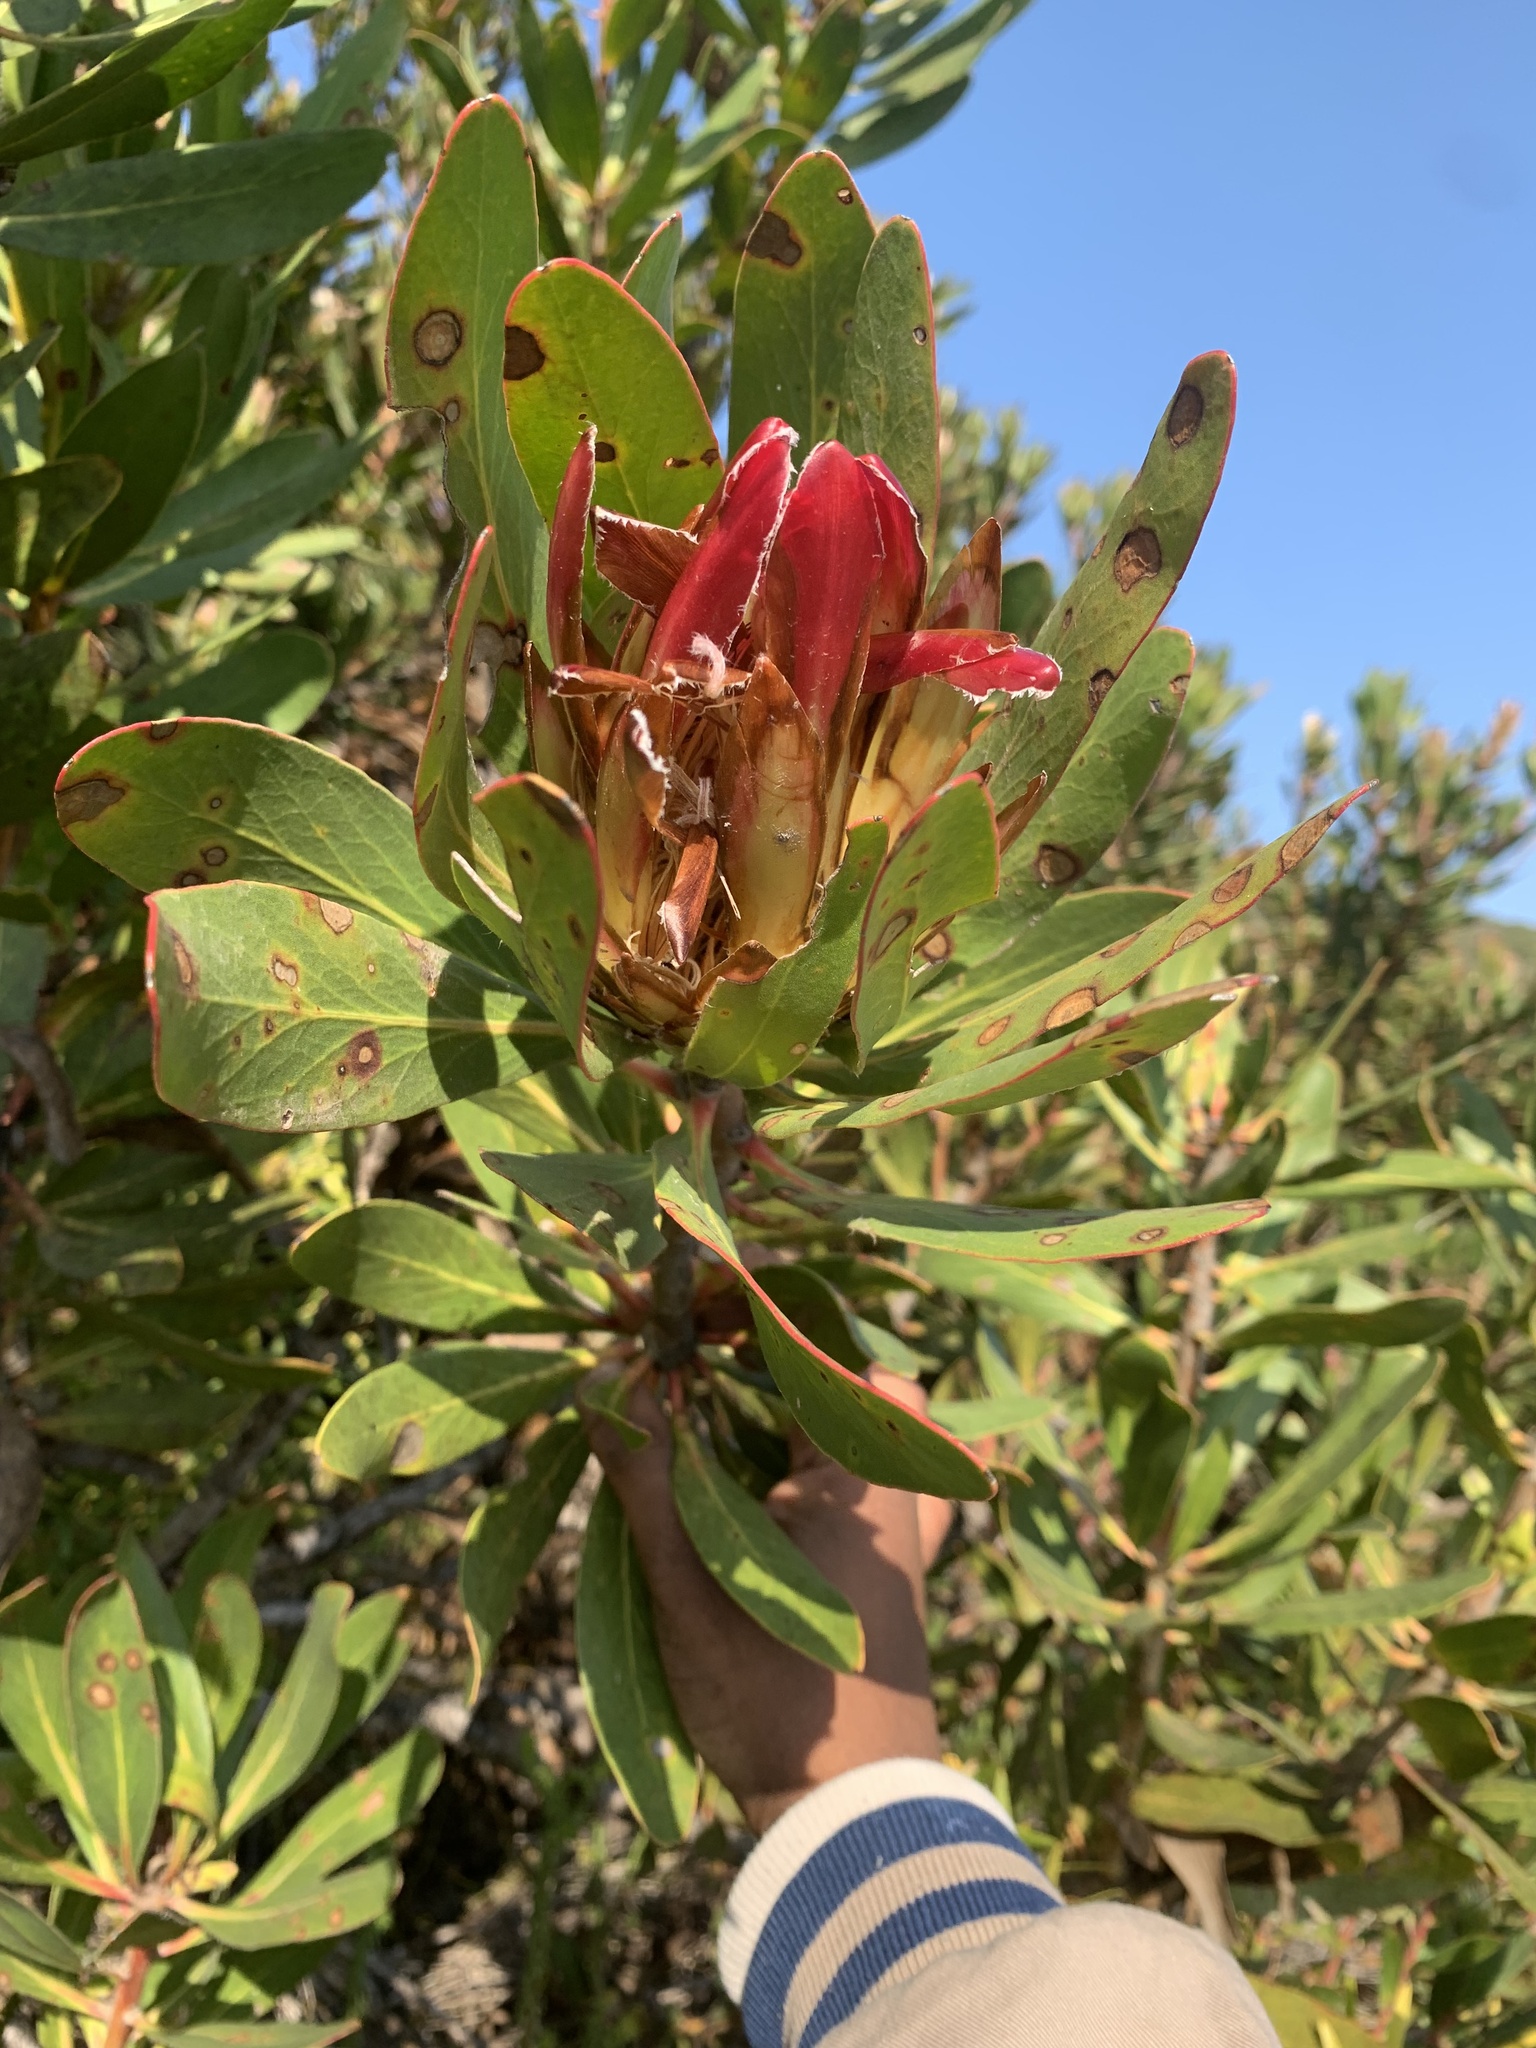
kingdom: Plantae
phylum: Tracheophyta
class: Magnoliopsida
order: Proteales
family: Proteaceae
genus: Protea
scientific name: Protea obtusifolia
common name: Bredasdorp sugarbush
